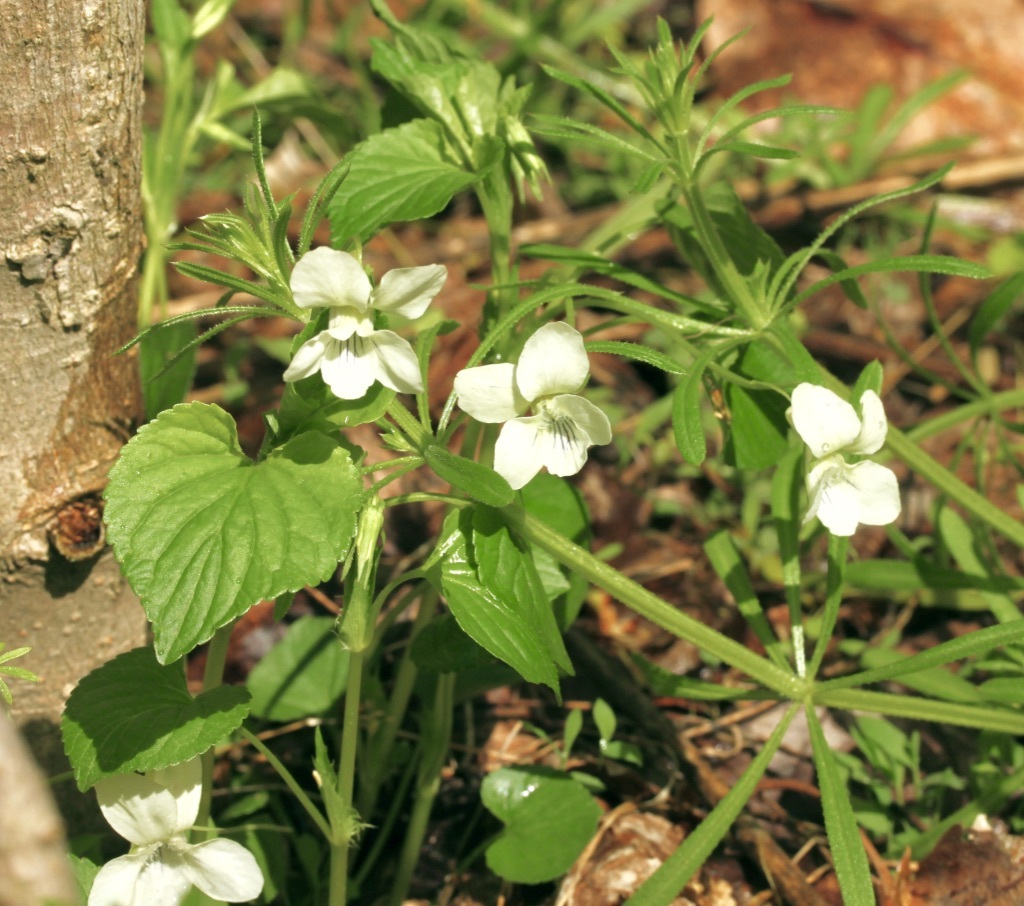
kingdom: Plantae
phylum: Tracheophyta
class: Magnoliopsida
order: Malpighiales
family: Violaceae
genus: Viola
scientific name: Viola striata
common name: Cream violet
